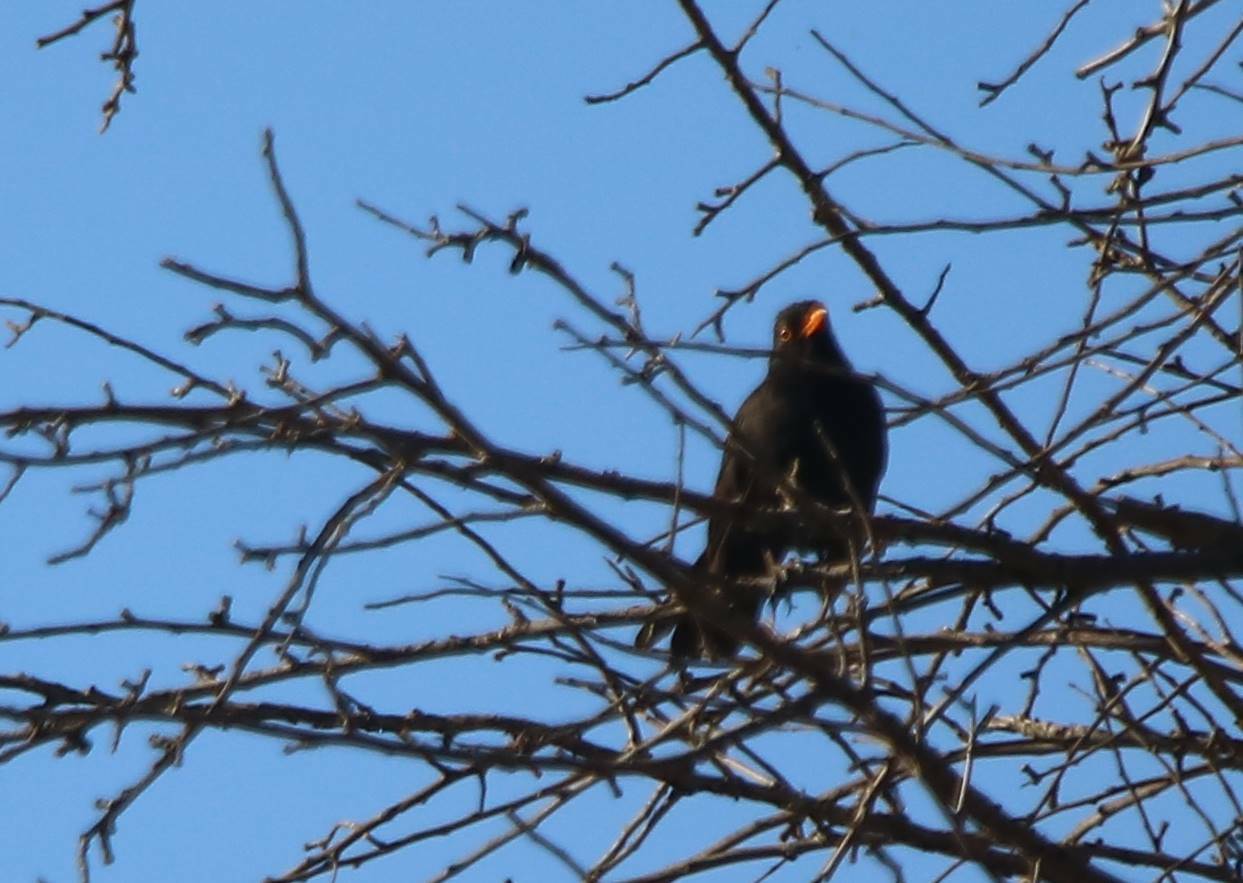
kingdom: Animalia
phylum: Chordata
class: Aves
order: Passeriformes
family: Turdidae
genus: Turdus
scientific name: Turdus merula
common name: Common blackbird
